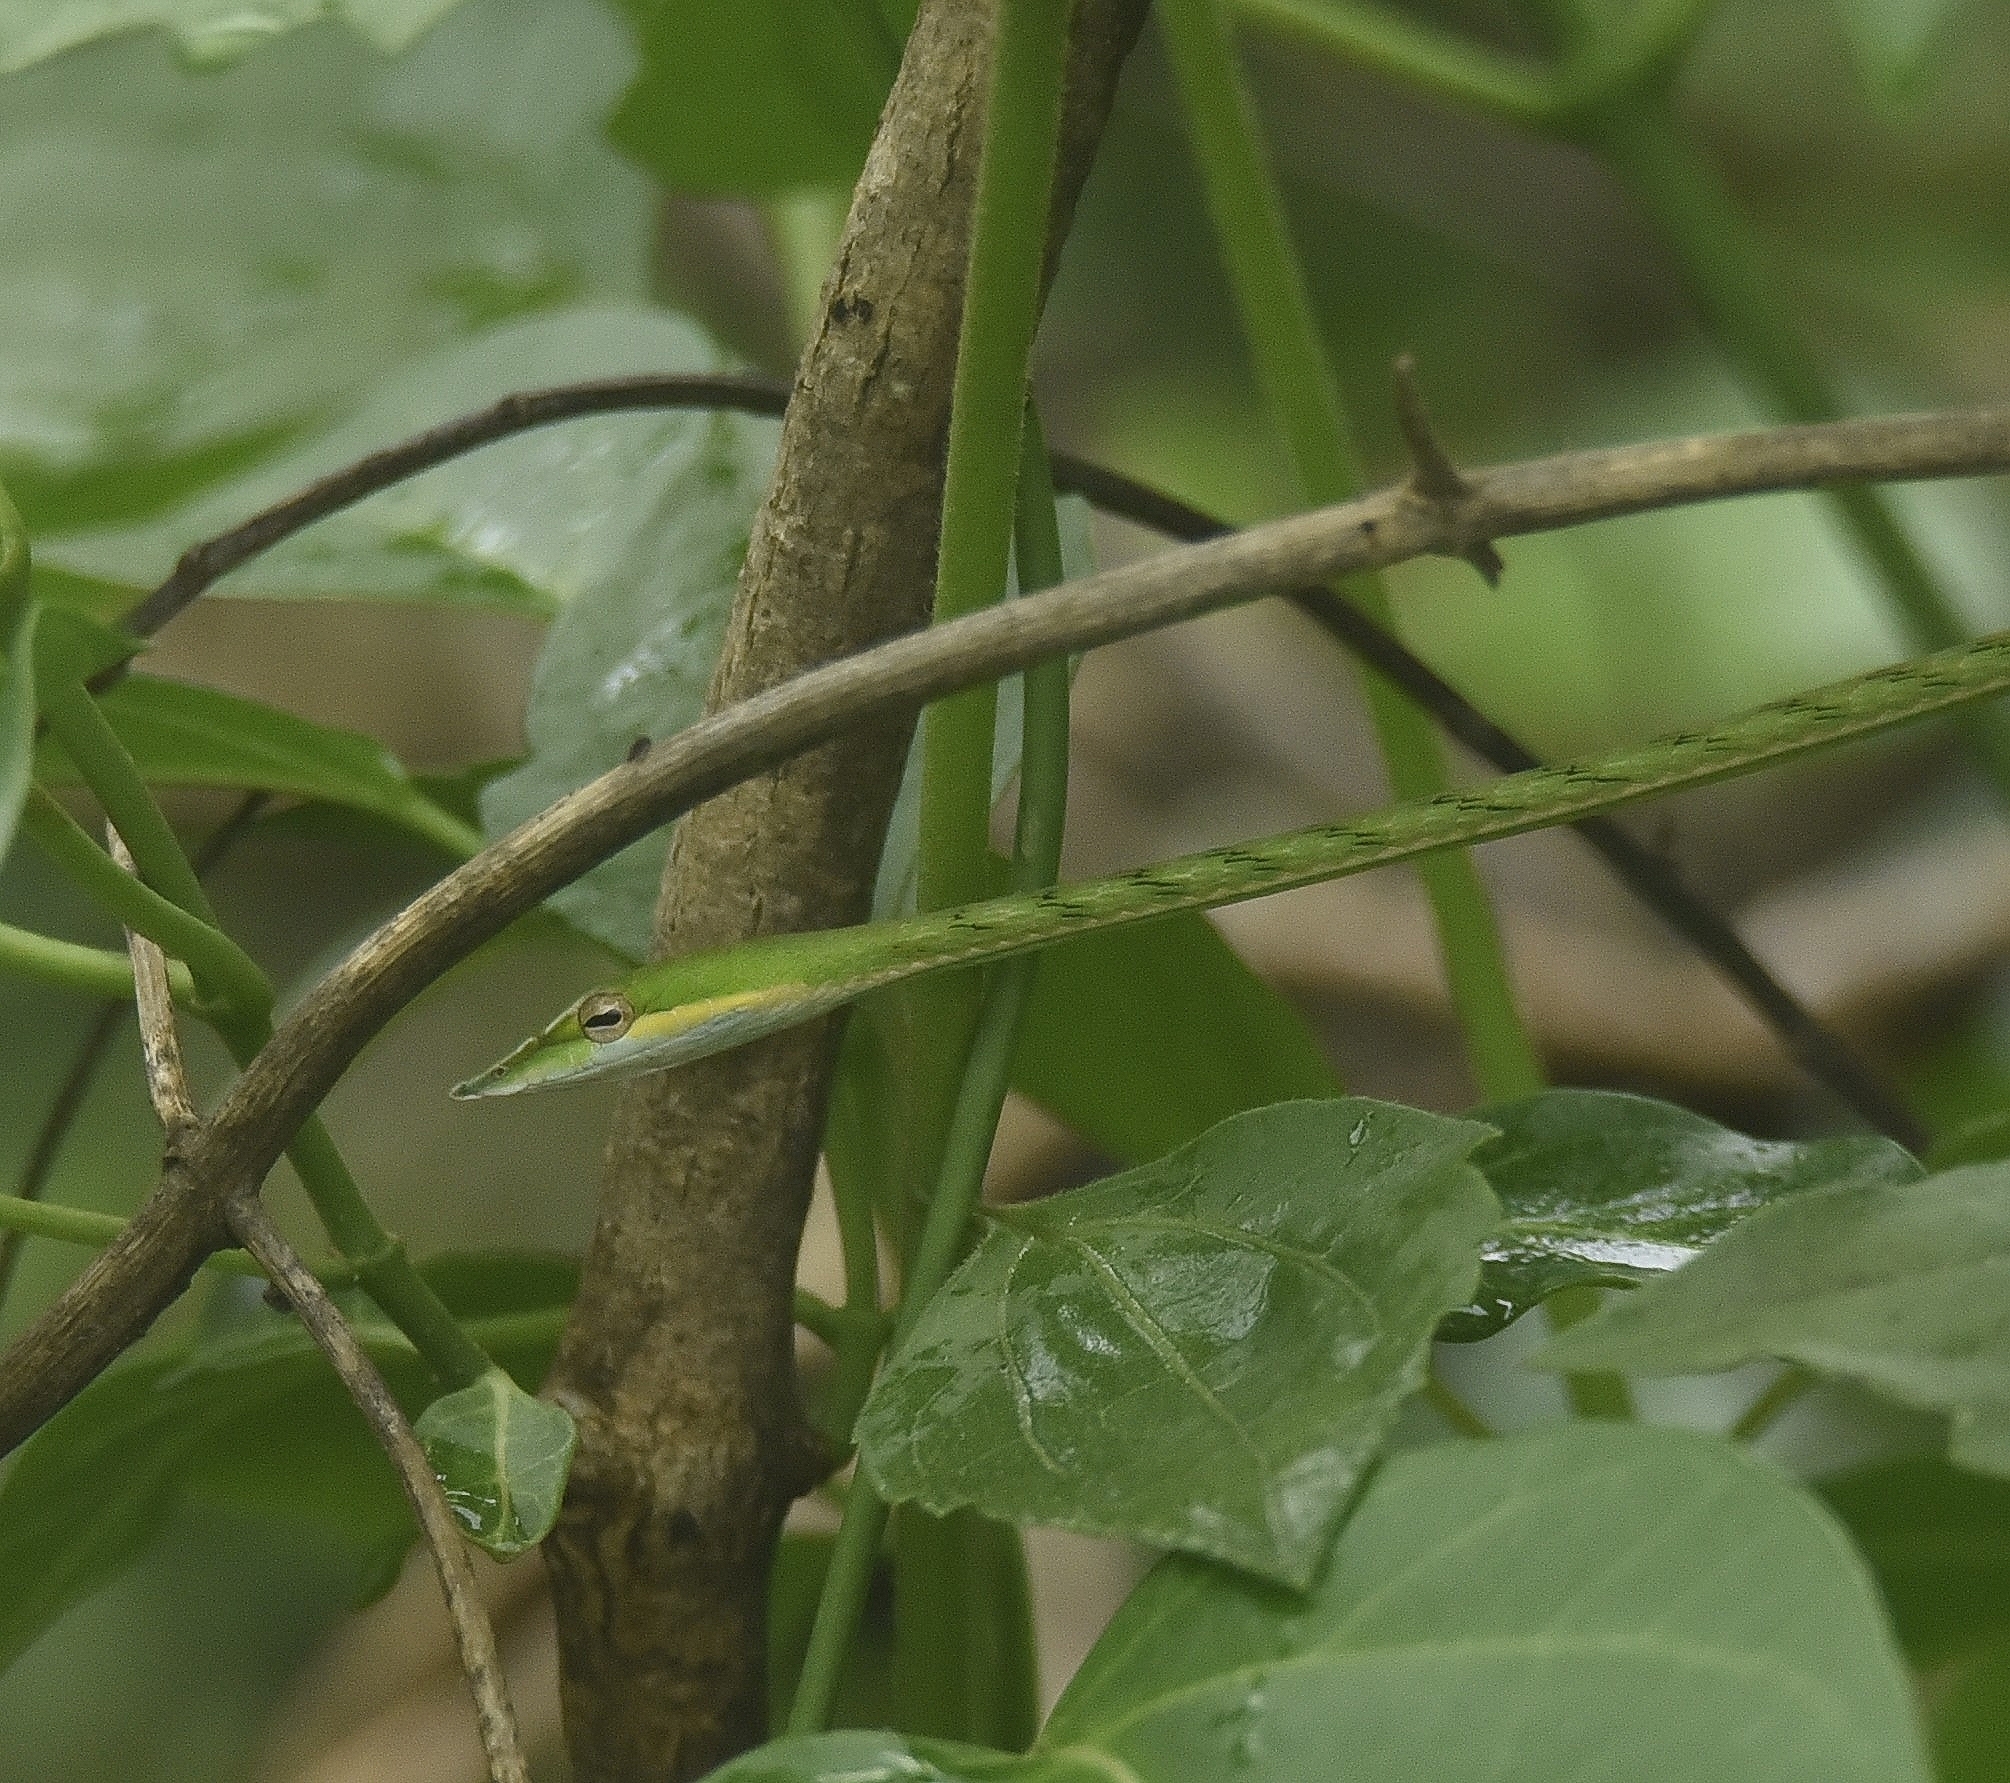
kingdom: Animalia
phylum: Chordata
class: Squamata
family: Colubridae
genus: Ahaetulla
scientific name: Ahaetulla oxyrhyncha
